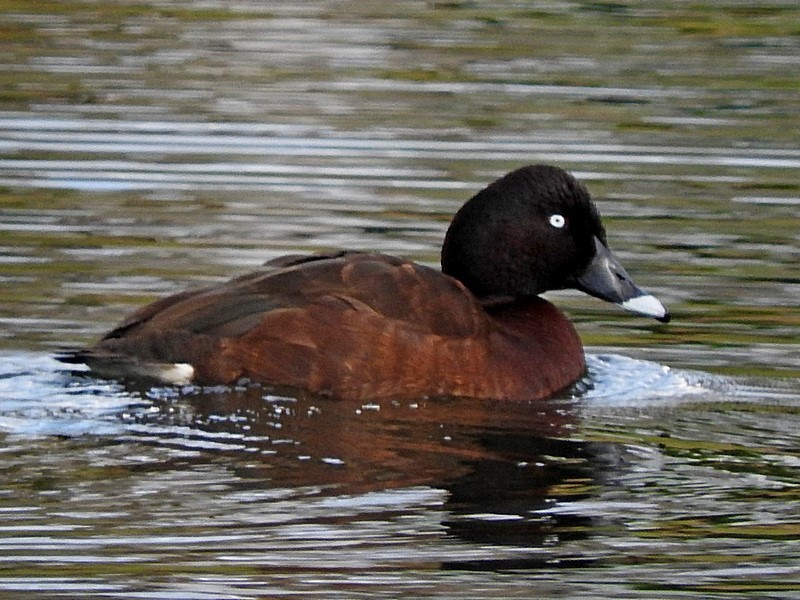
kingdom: Animalia
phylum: Chordata
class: Aves
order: Anseriformes
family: Anatidae
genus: Aythya
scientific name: Aythya australis
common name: Hardhead
